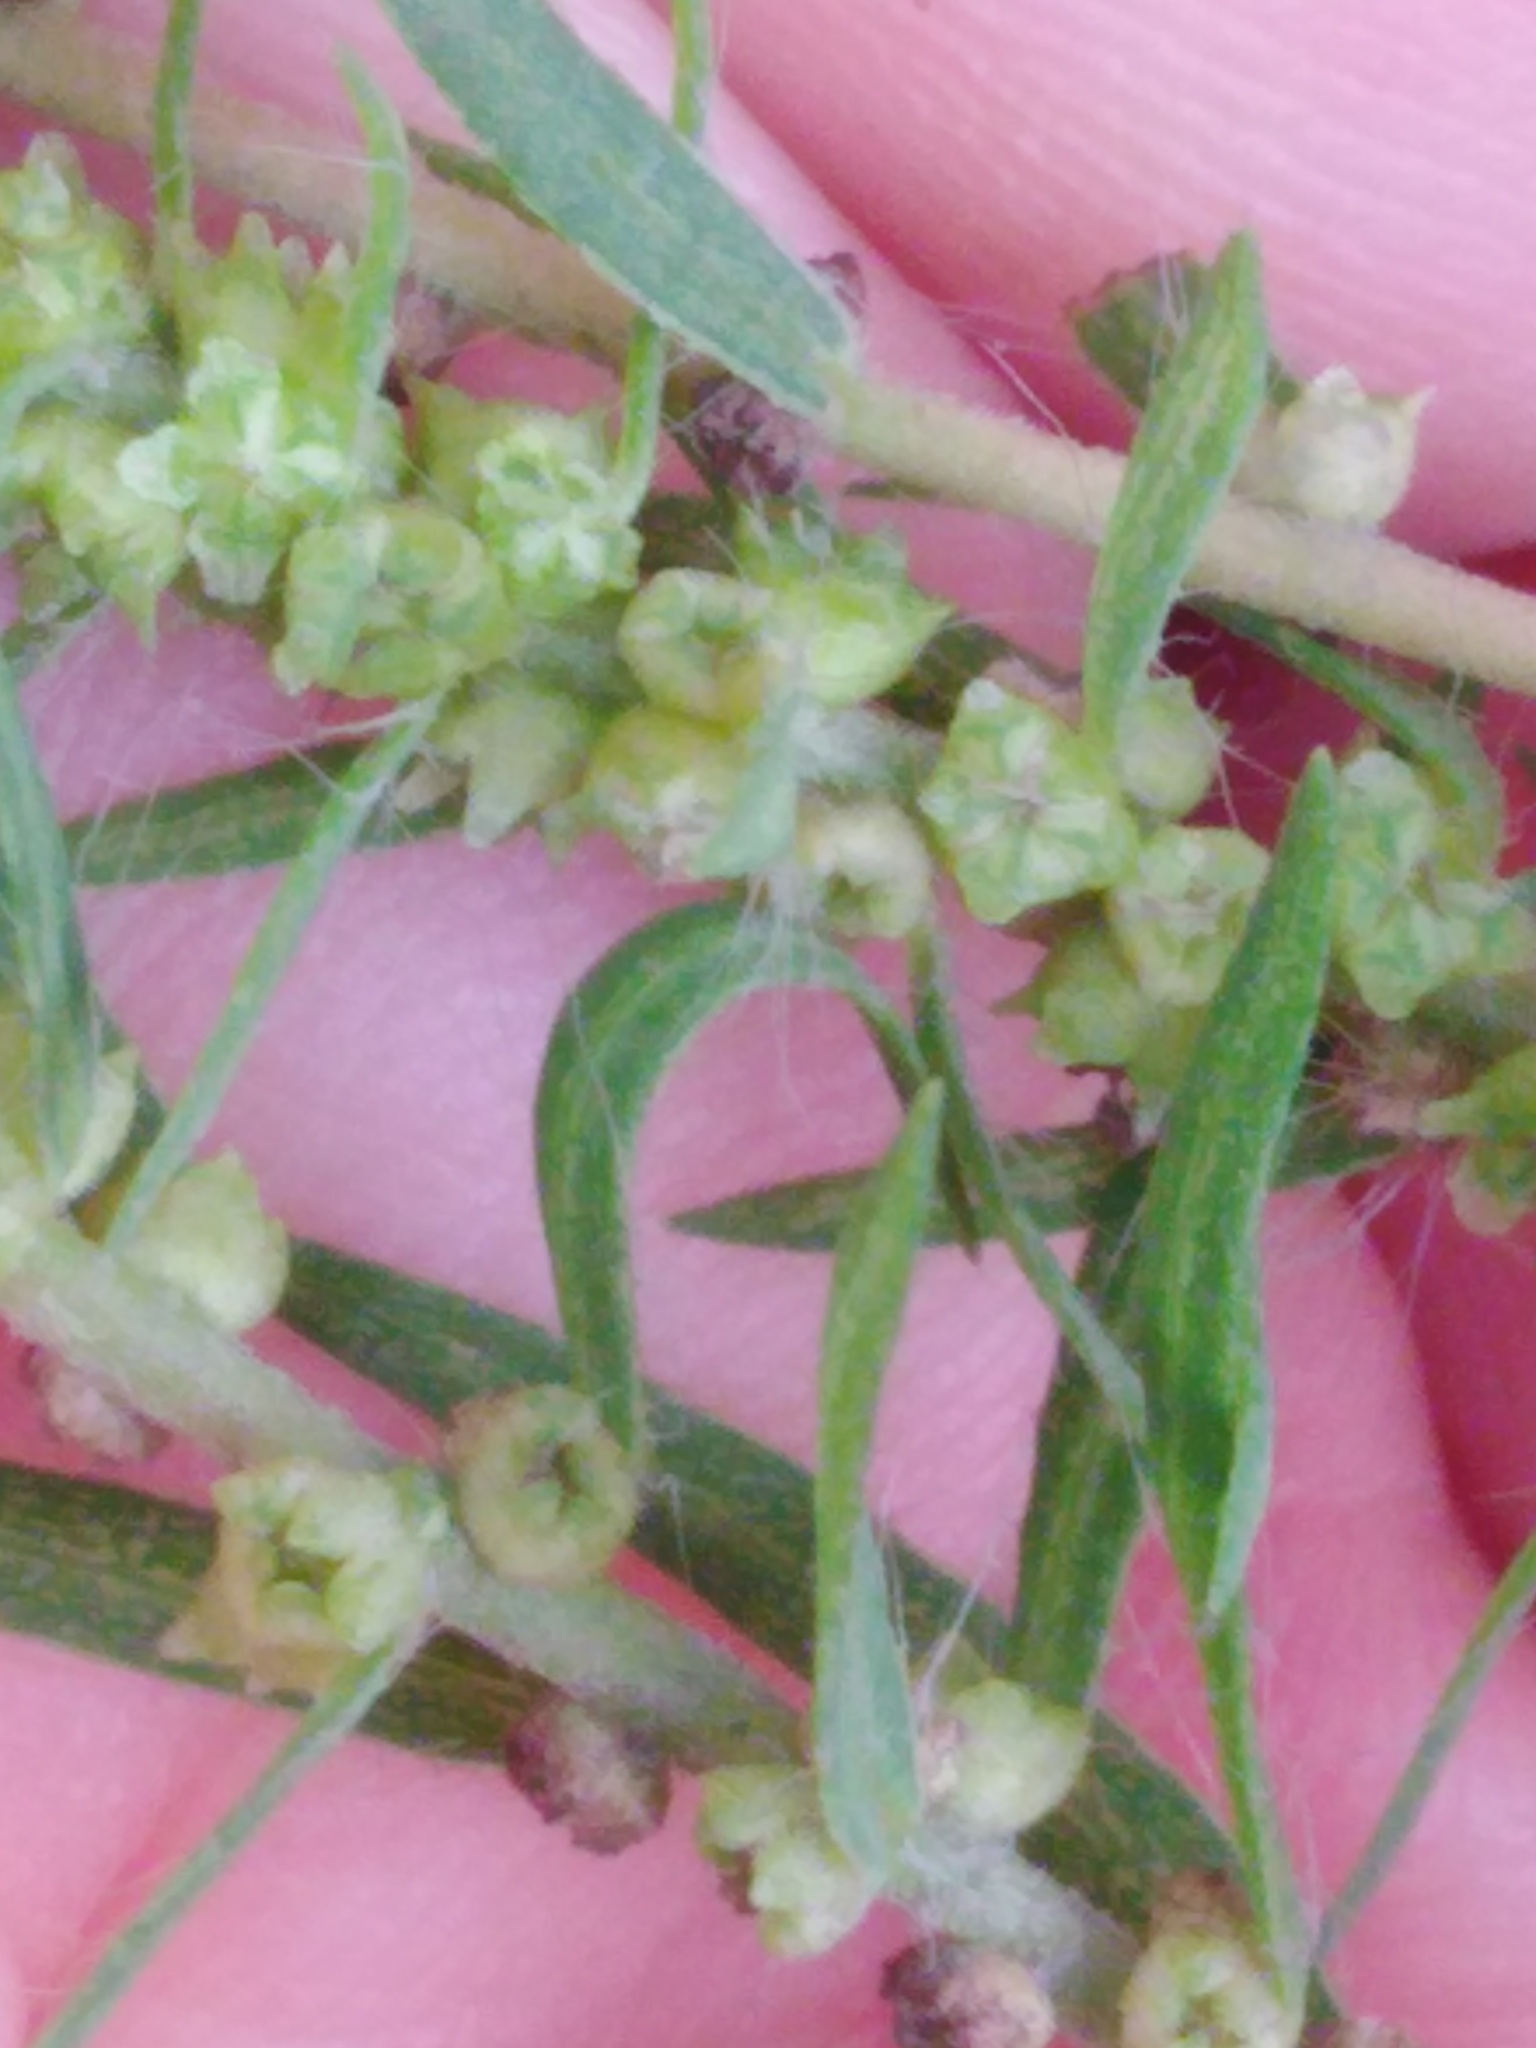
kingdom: Plantae
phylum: Tracheophyta
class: Magnoliopsida
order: Caryophyllales
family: Amaranthaceae
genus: Bassia
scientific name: Bassia scoparia
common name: Belvedere
